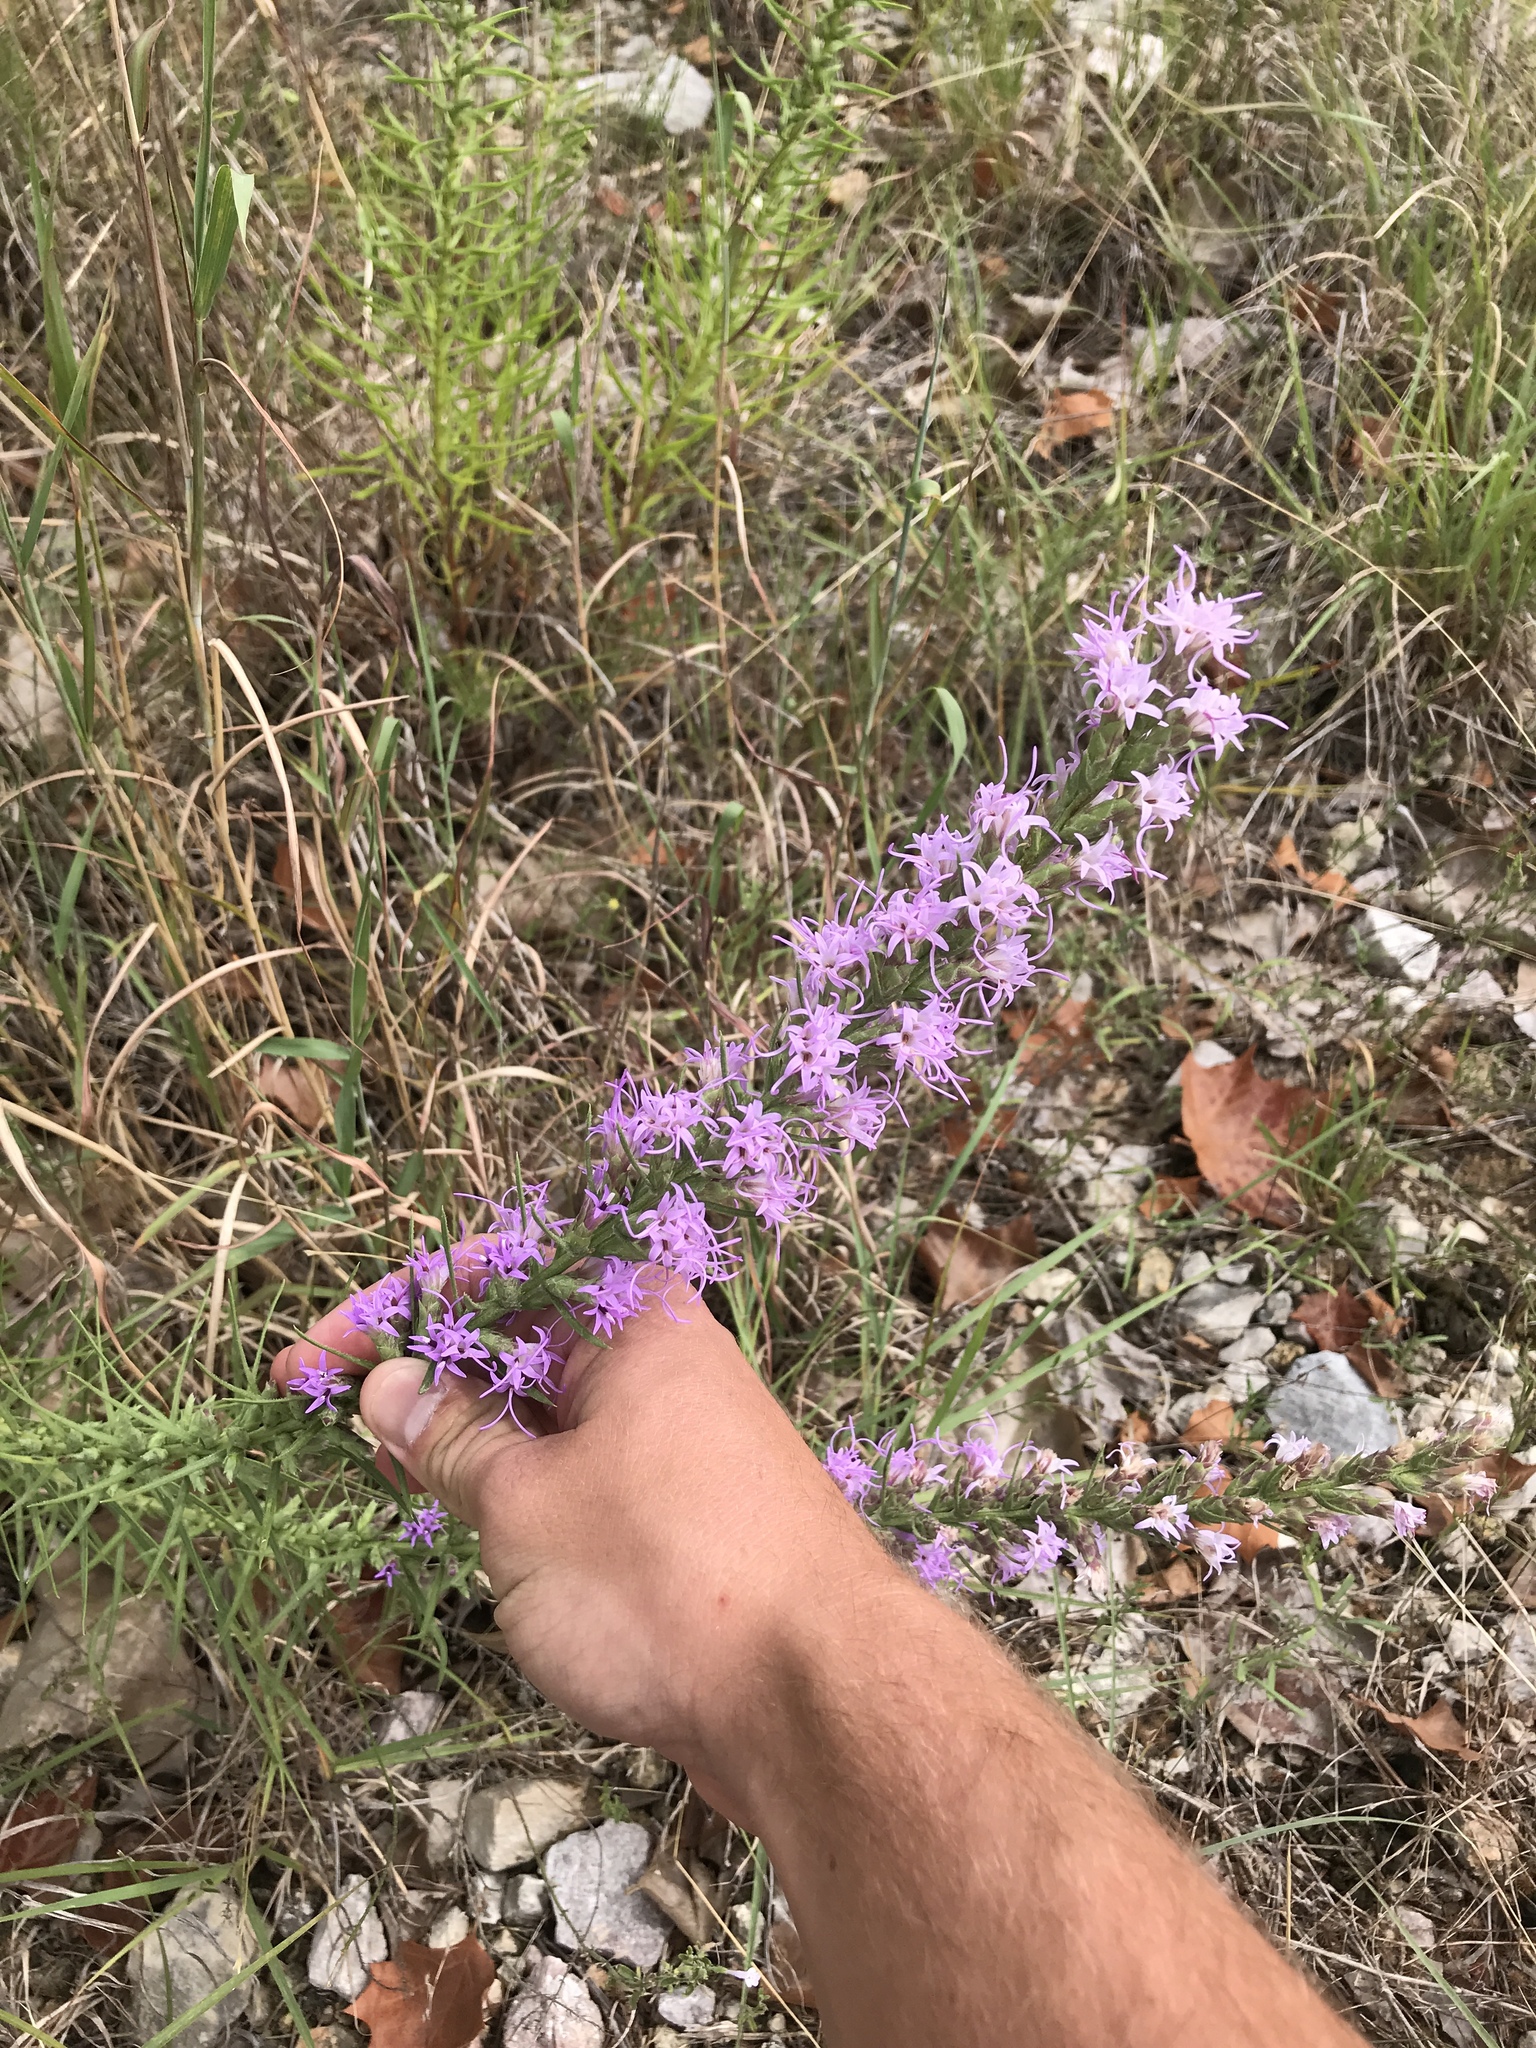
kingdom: Plantae
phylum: Tracheophyta
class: Magnoliopsida
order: Asterales
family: Asteraceae
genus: Liatris
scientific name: Liatris punctata
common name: Dotted gayfeather
